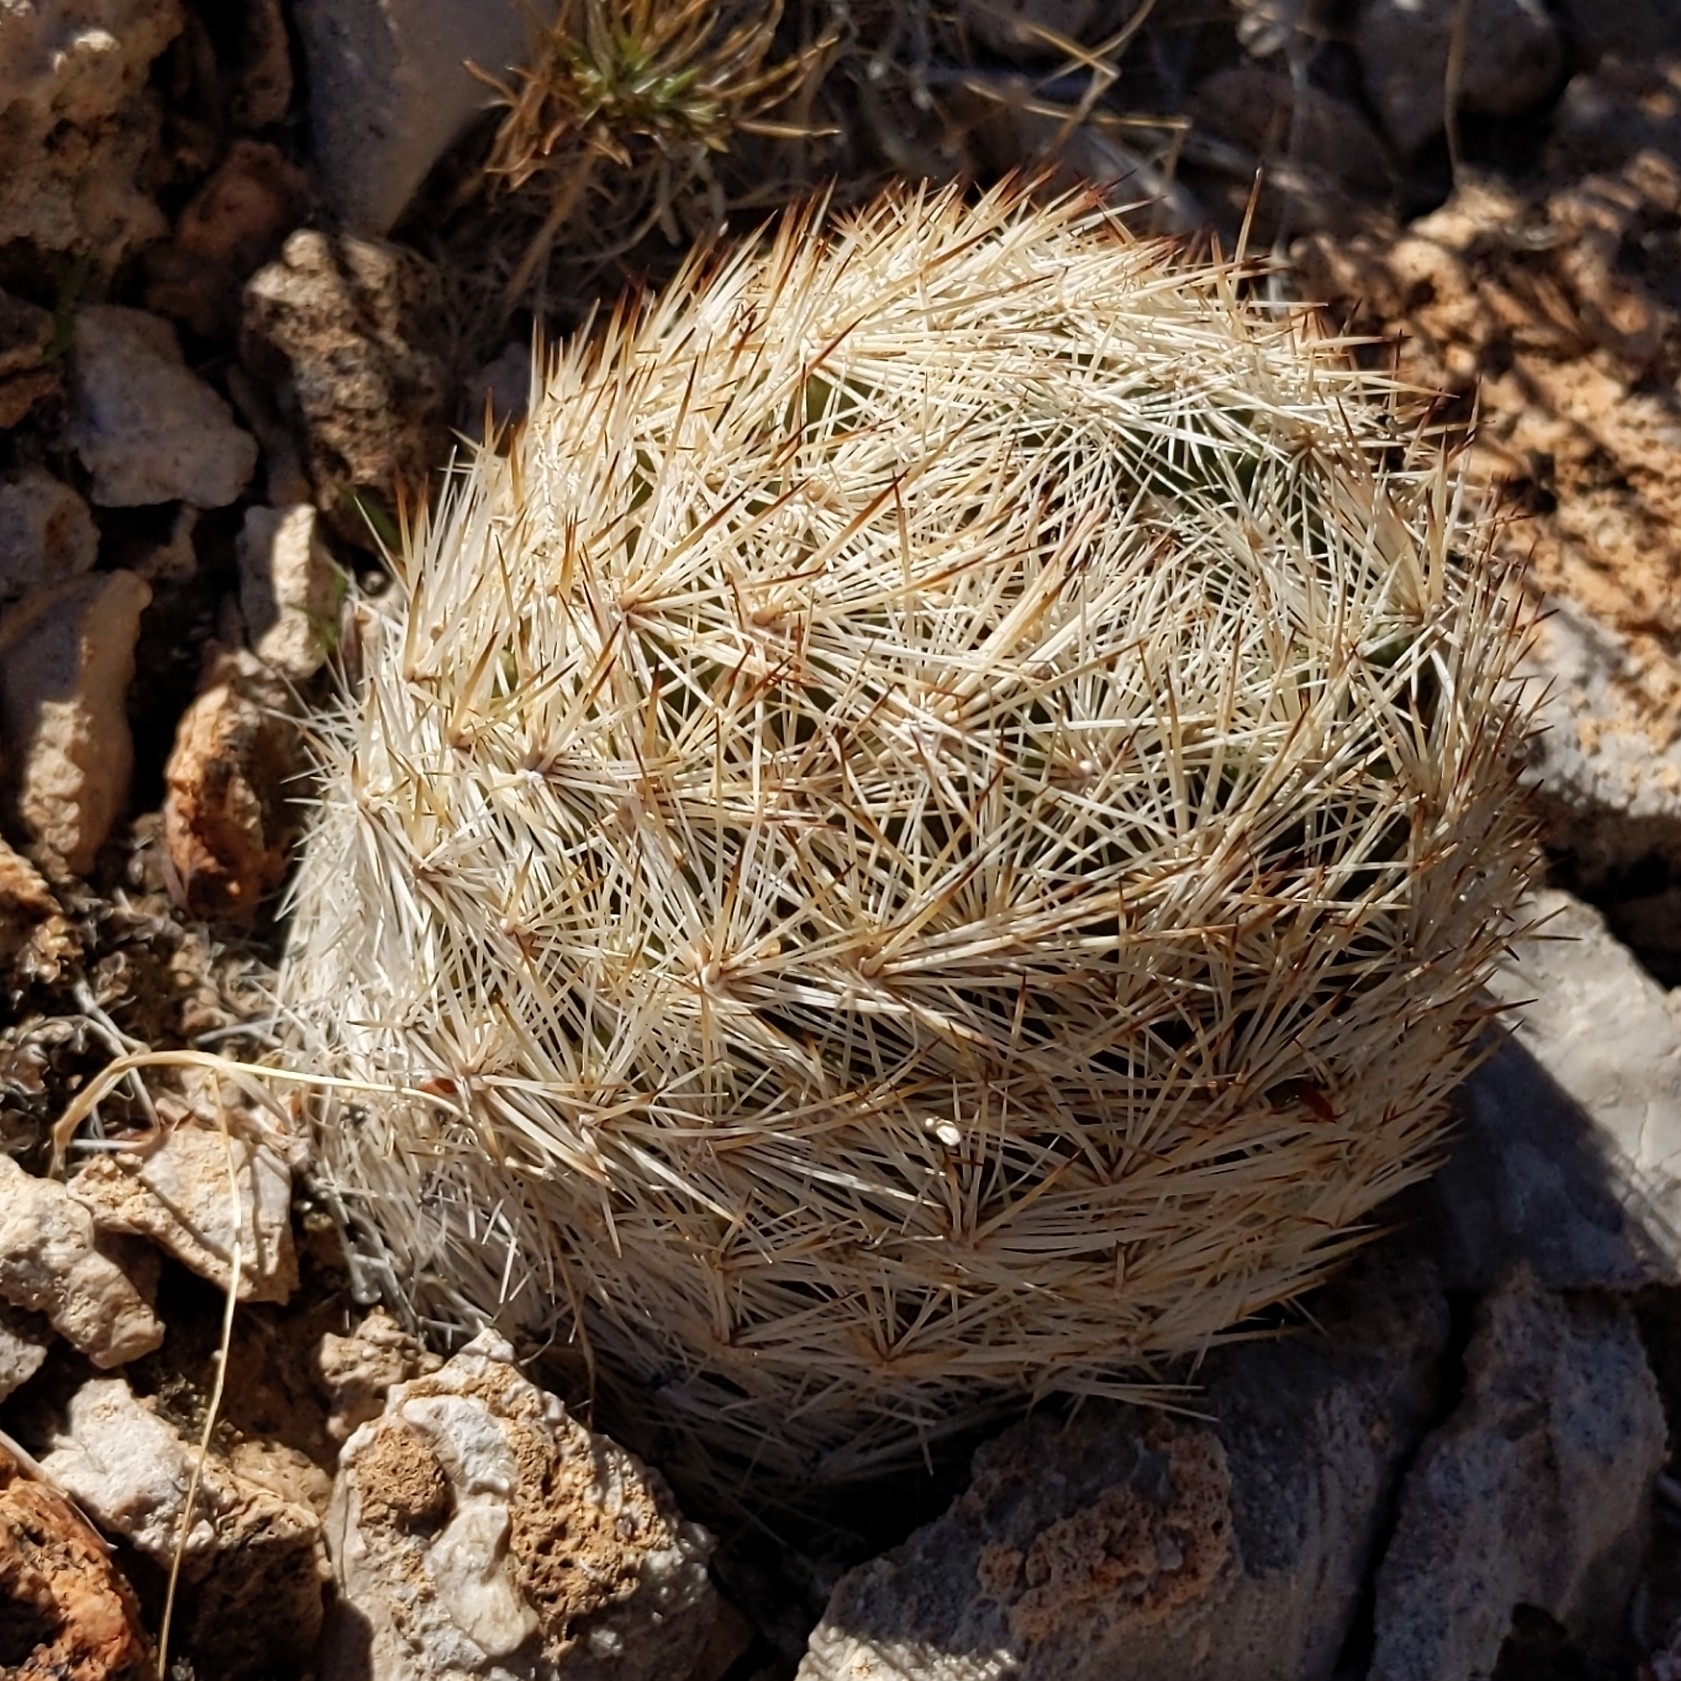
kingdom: Plantae
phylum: Tracheophyta
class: Magnoliopsida
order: Caryophyllales
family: Cactaceae
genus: Pelecyphora
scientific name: Pelecyphora dasyacantha
